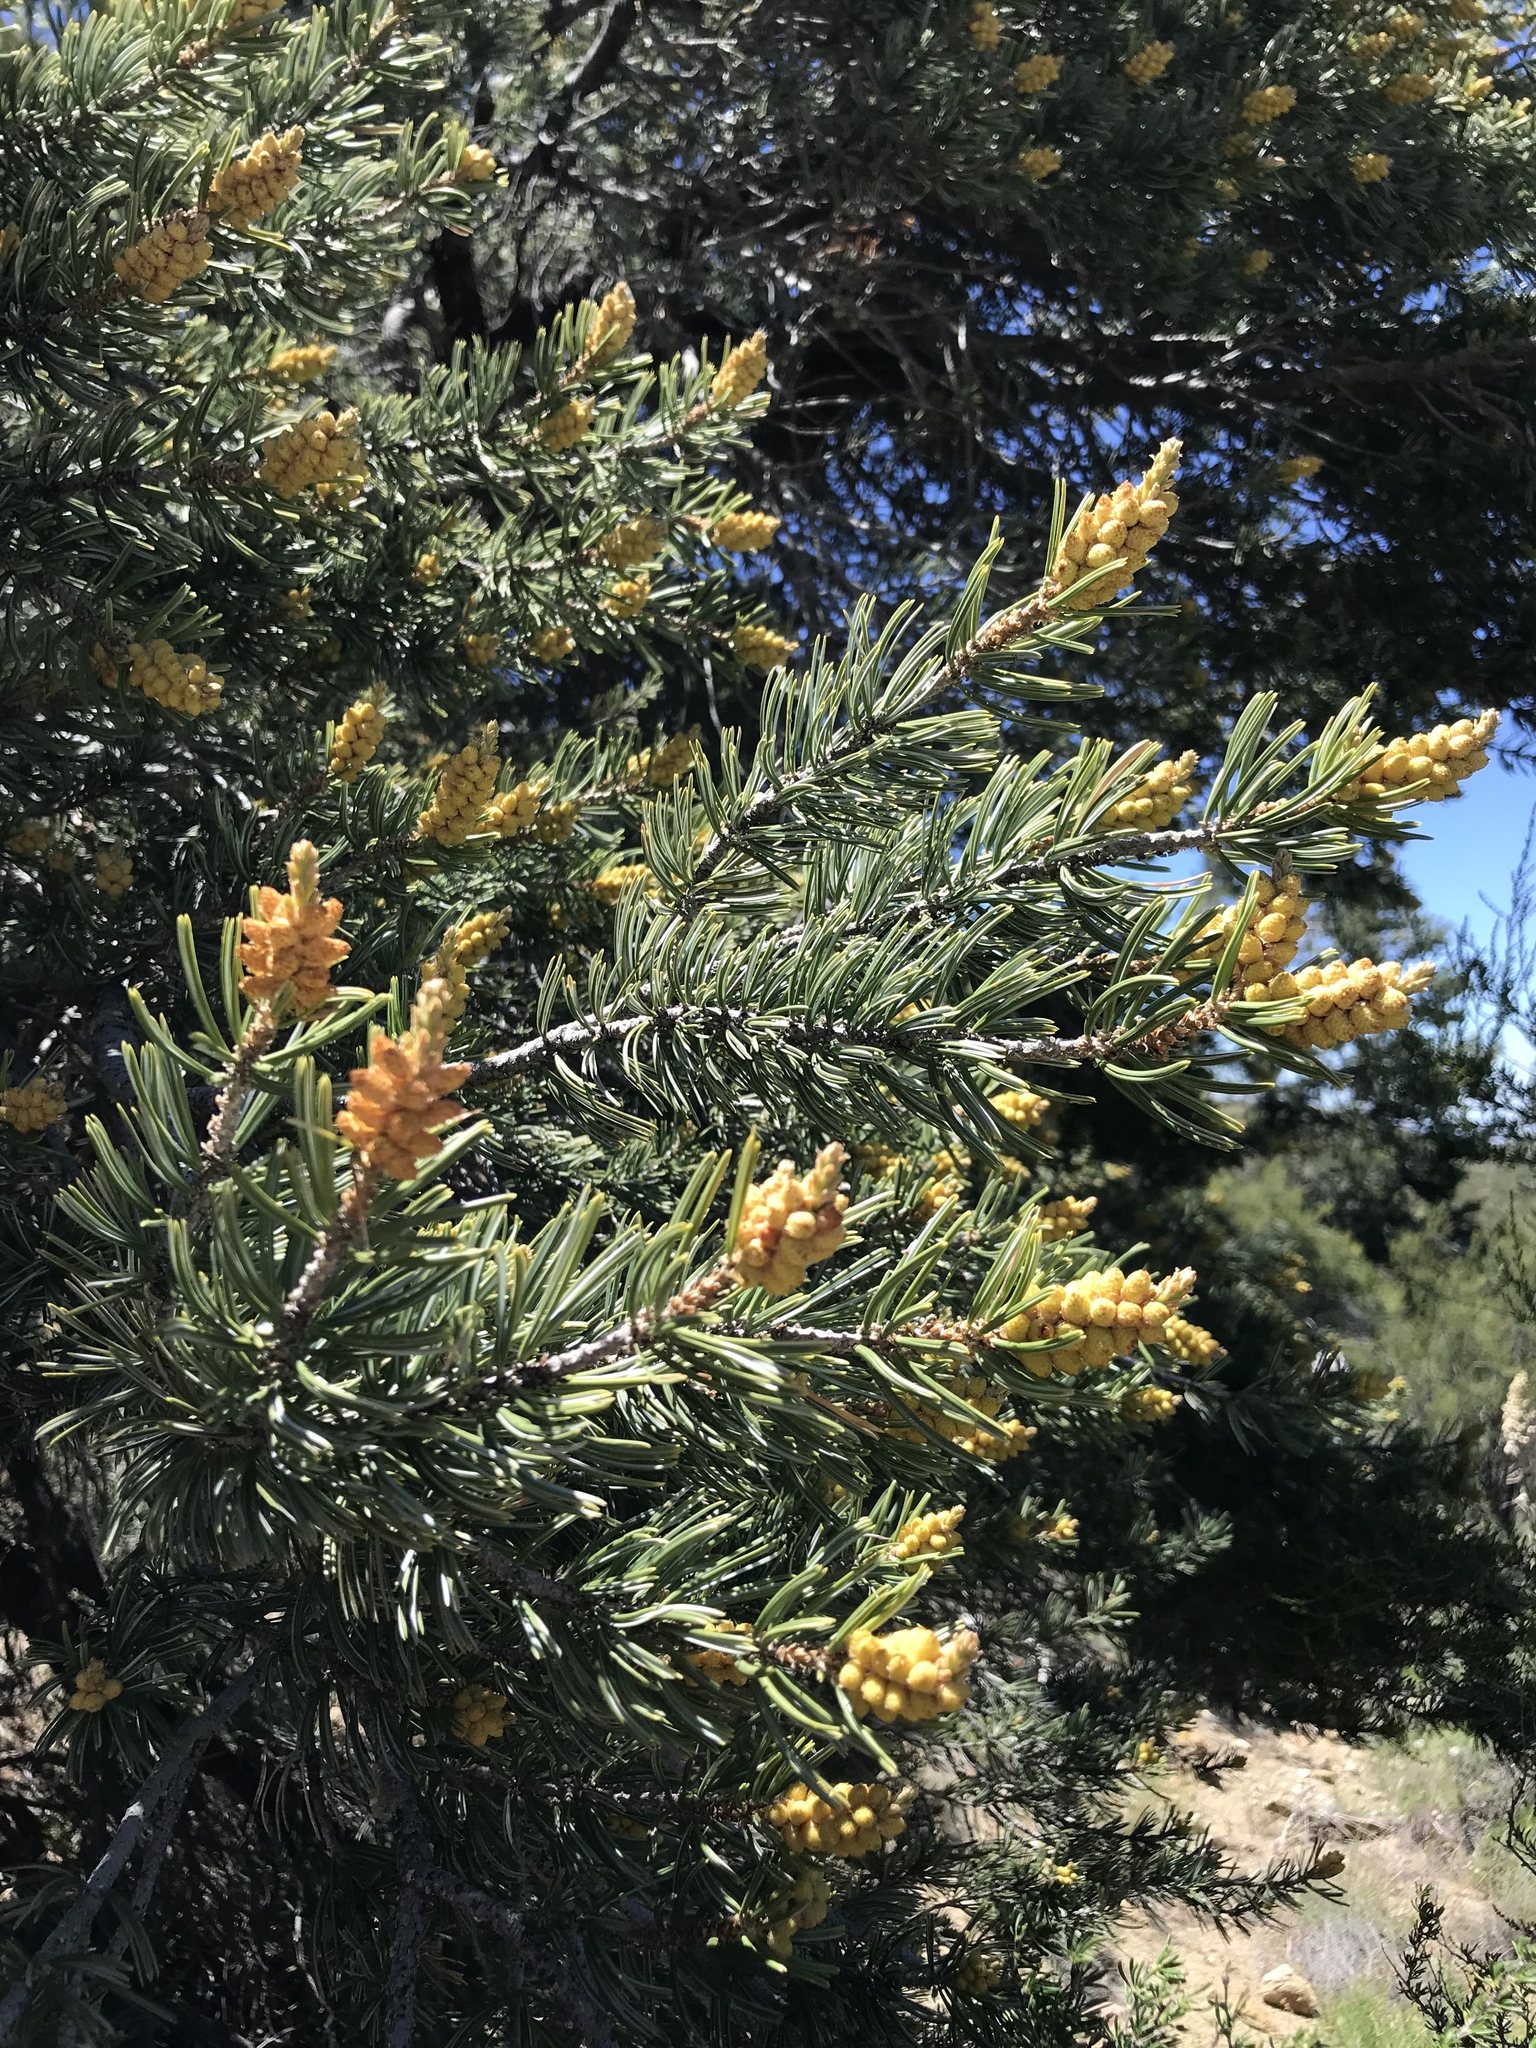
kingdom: Plantae
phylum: Tracheophyta
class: Pinopsida
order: Pinales
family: Pinaceae
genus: Pinus
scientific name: Pinus quadrifolia
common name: Parry pinyon
